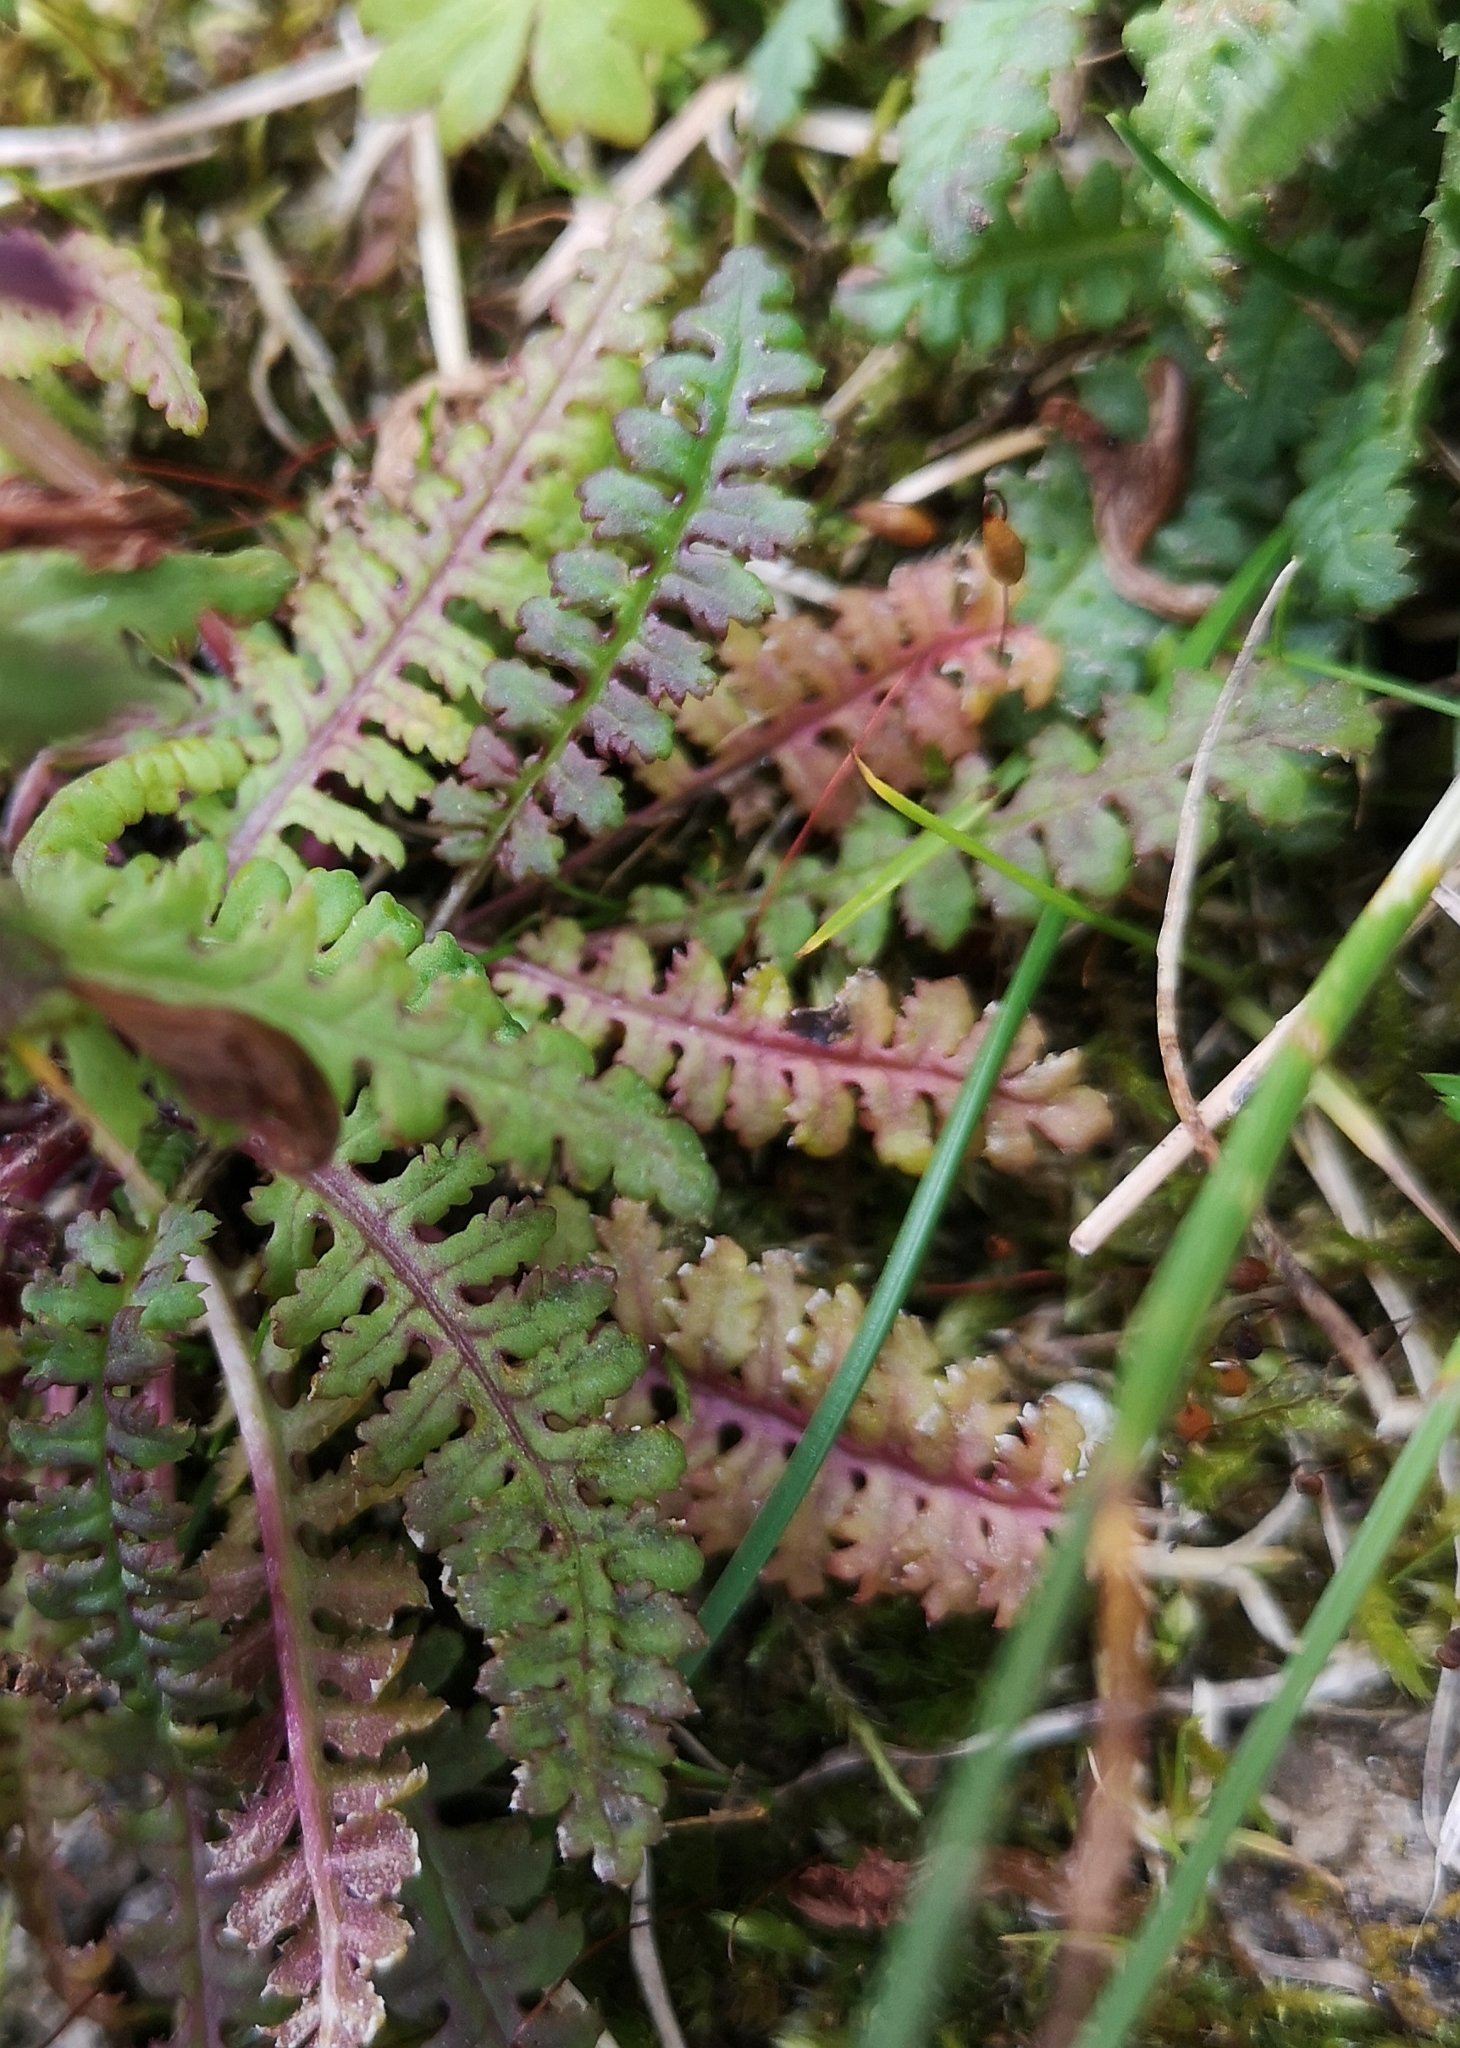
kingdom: Plantae
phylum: Tracheophyta
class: Magnoliopsida
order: Lamiales
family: Orobanchaceae
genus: Pedicularis
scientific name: Pedicularis verticillata
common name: Whorled lousewort
